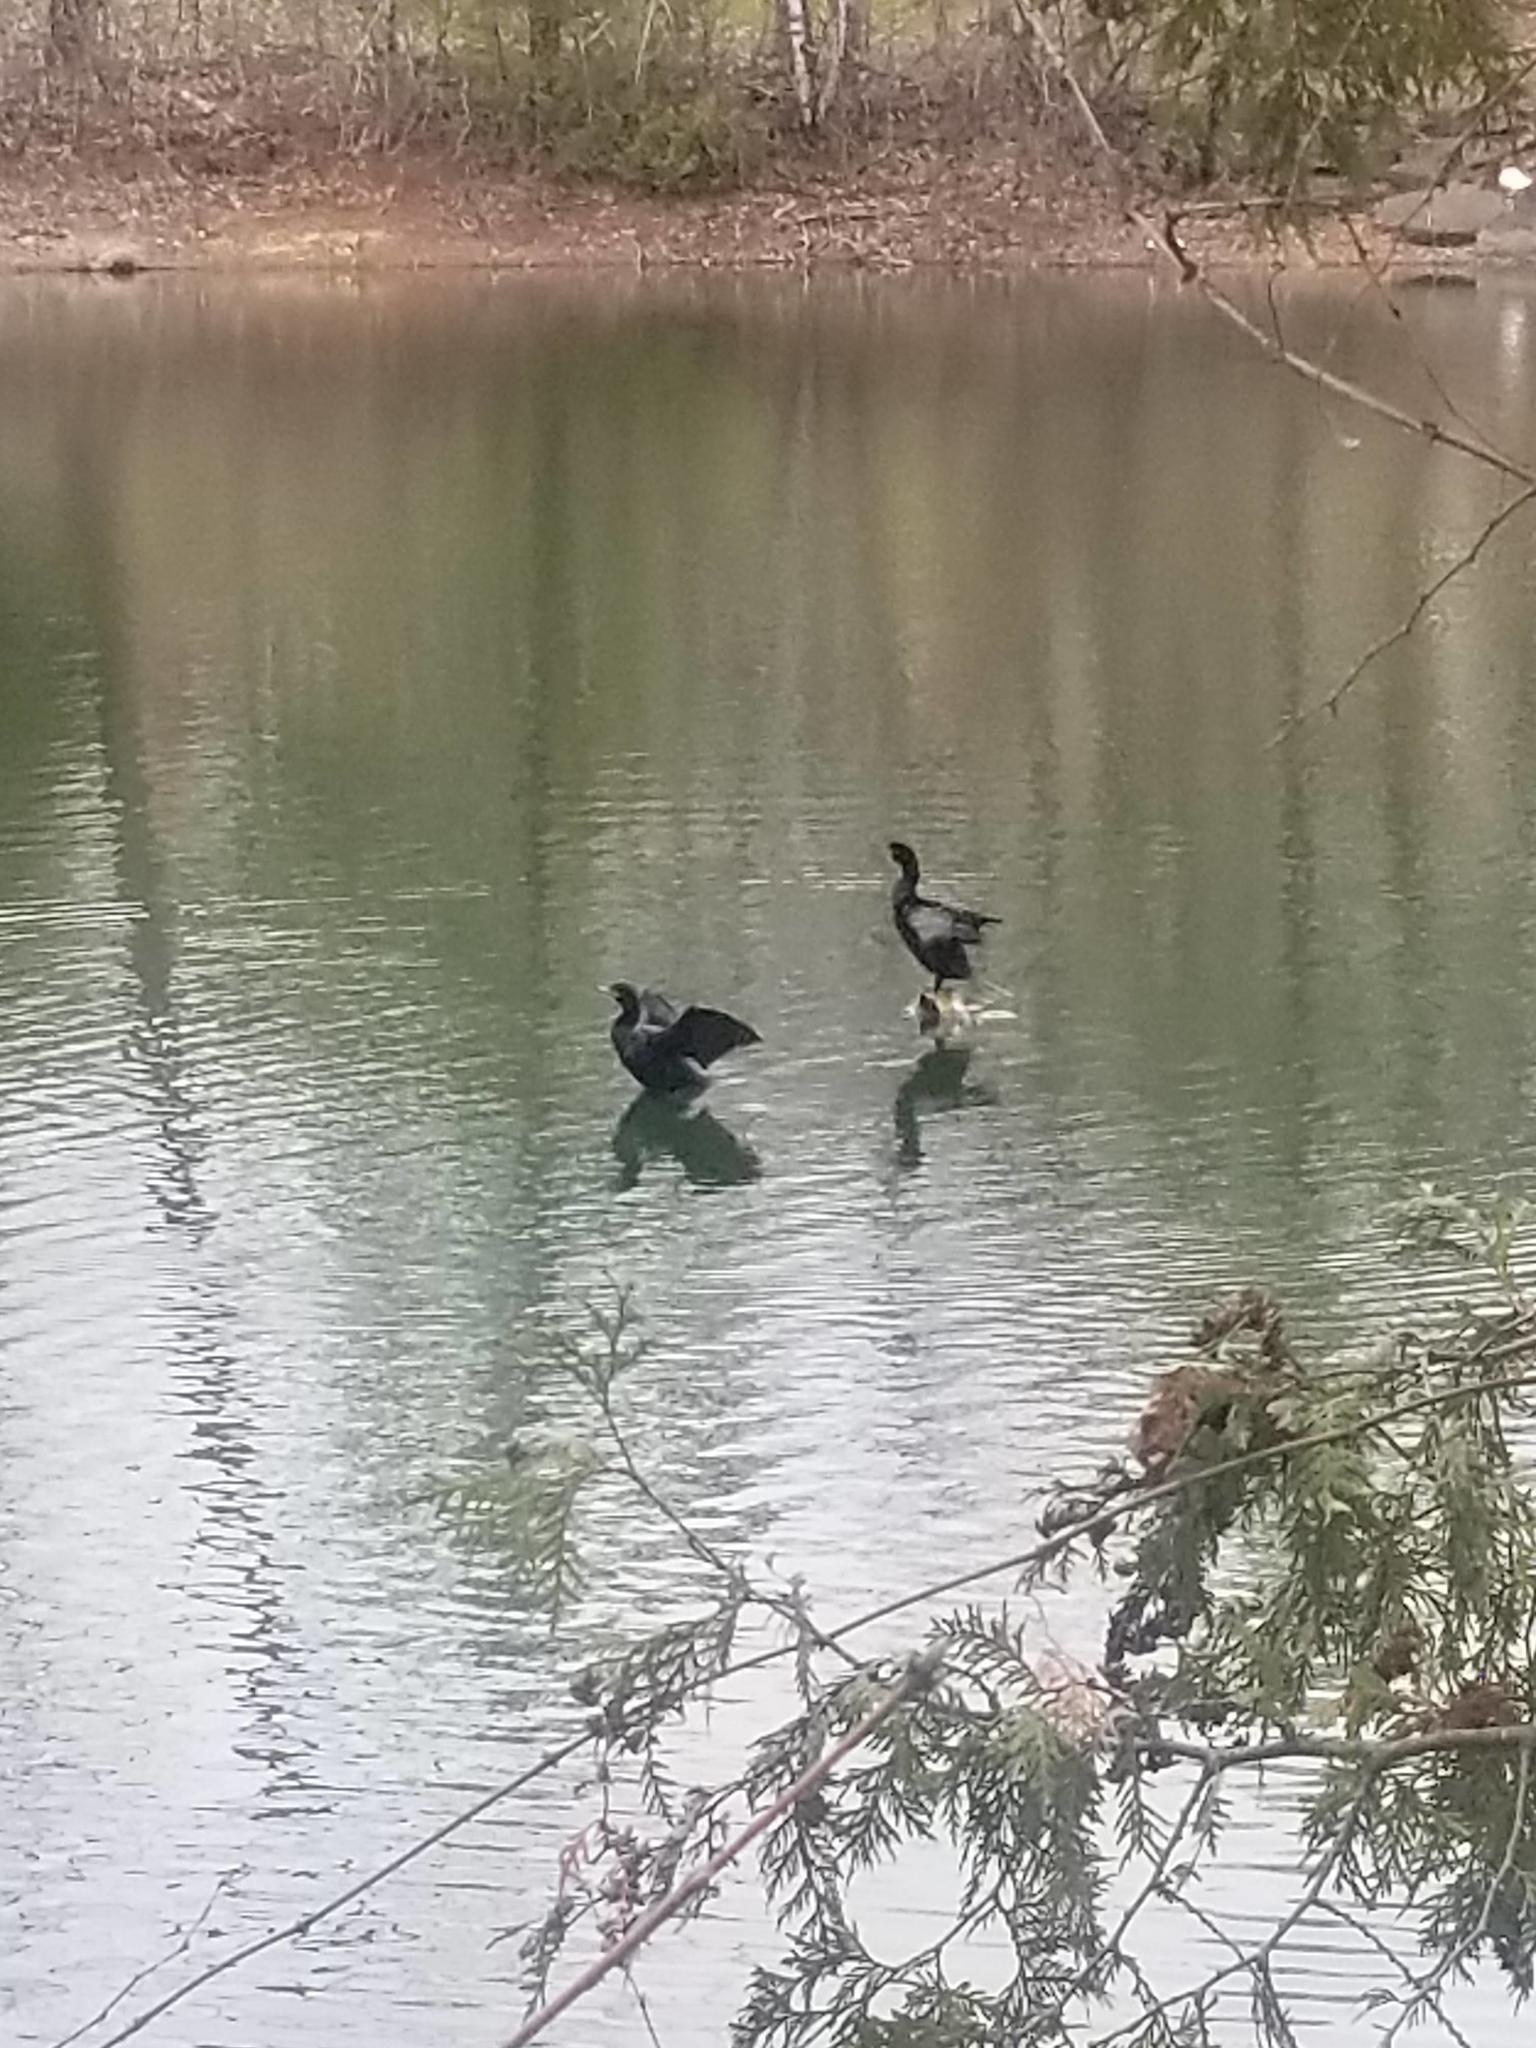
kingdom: Animalia
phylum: Chordata
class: Aves
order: Suliformes
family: Phalacrocoracidae
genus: Phalacrocorax
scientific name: Phalacrocorax auritus
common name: Double-crested cormorant
